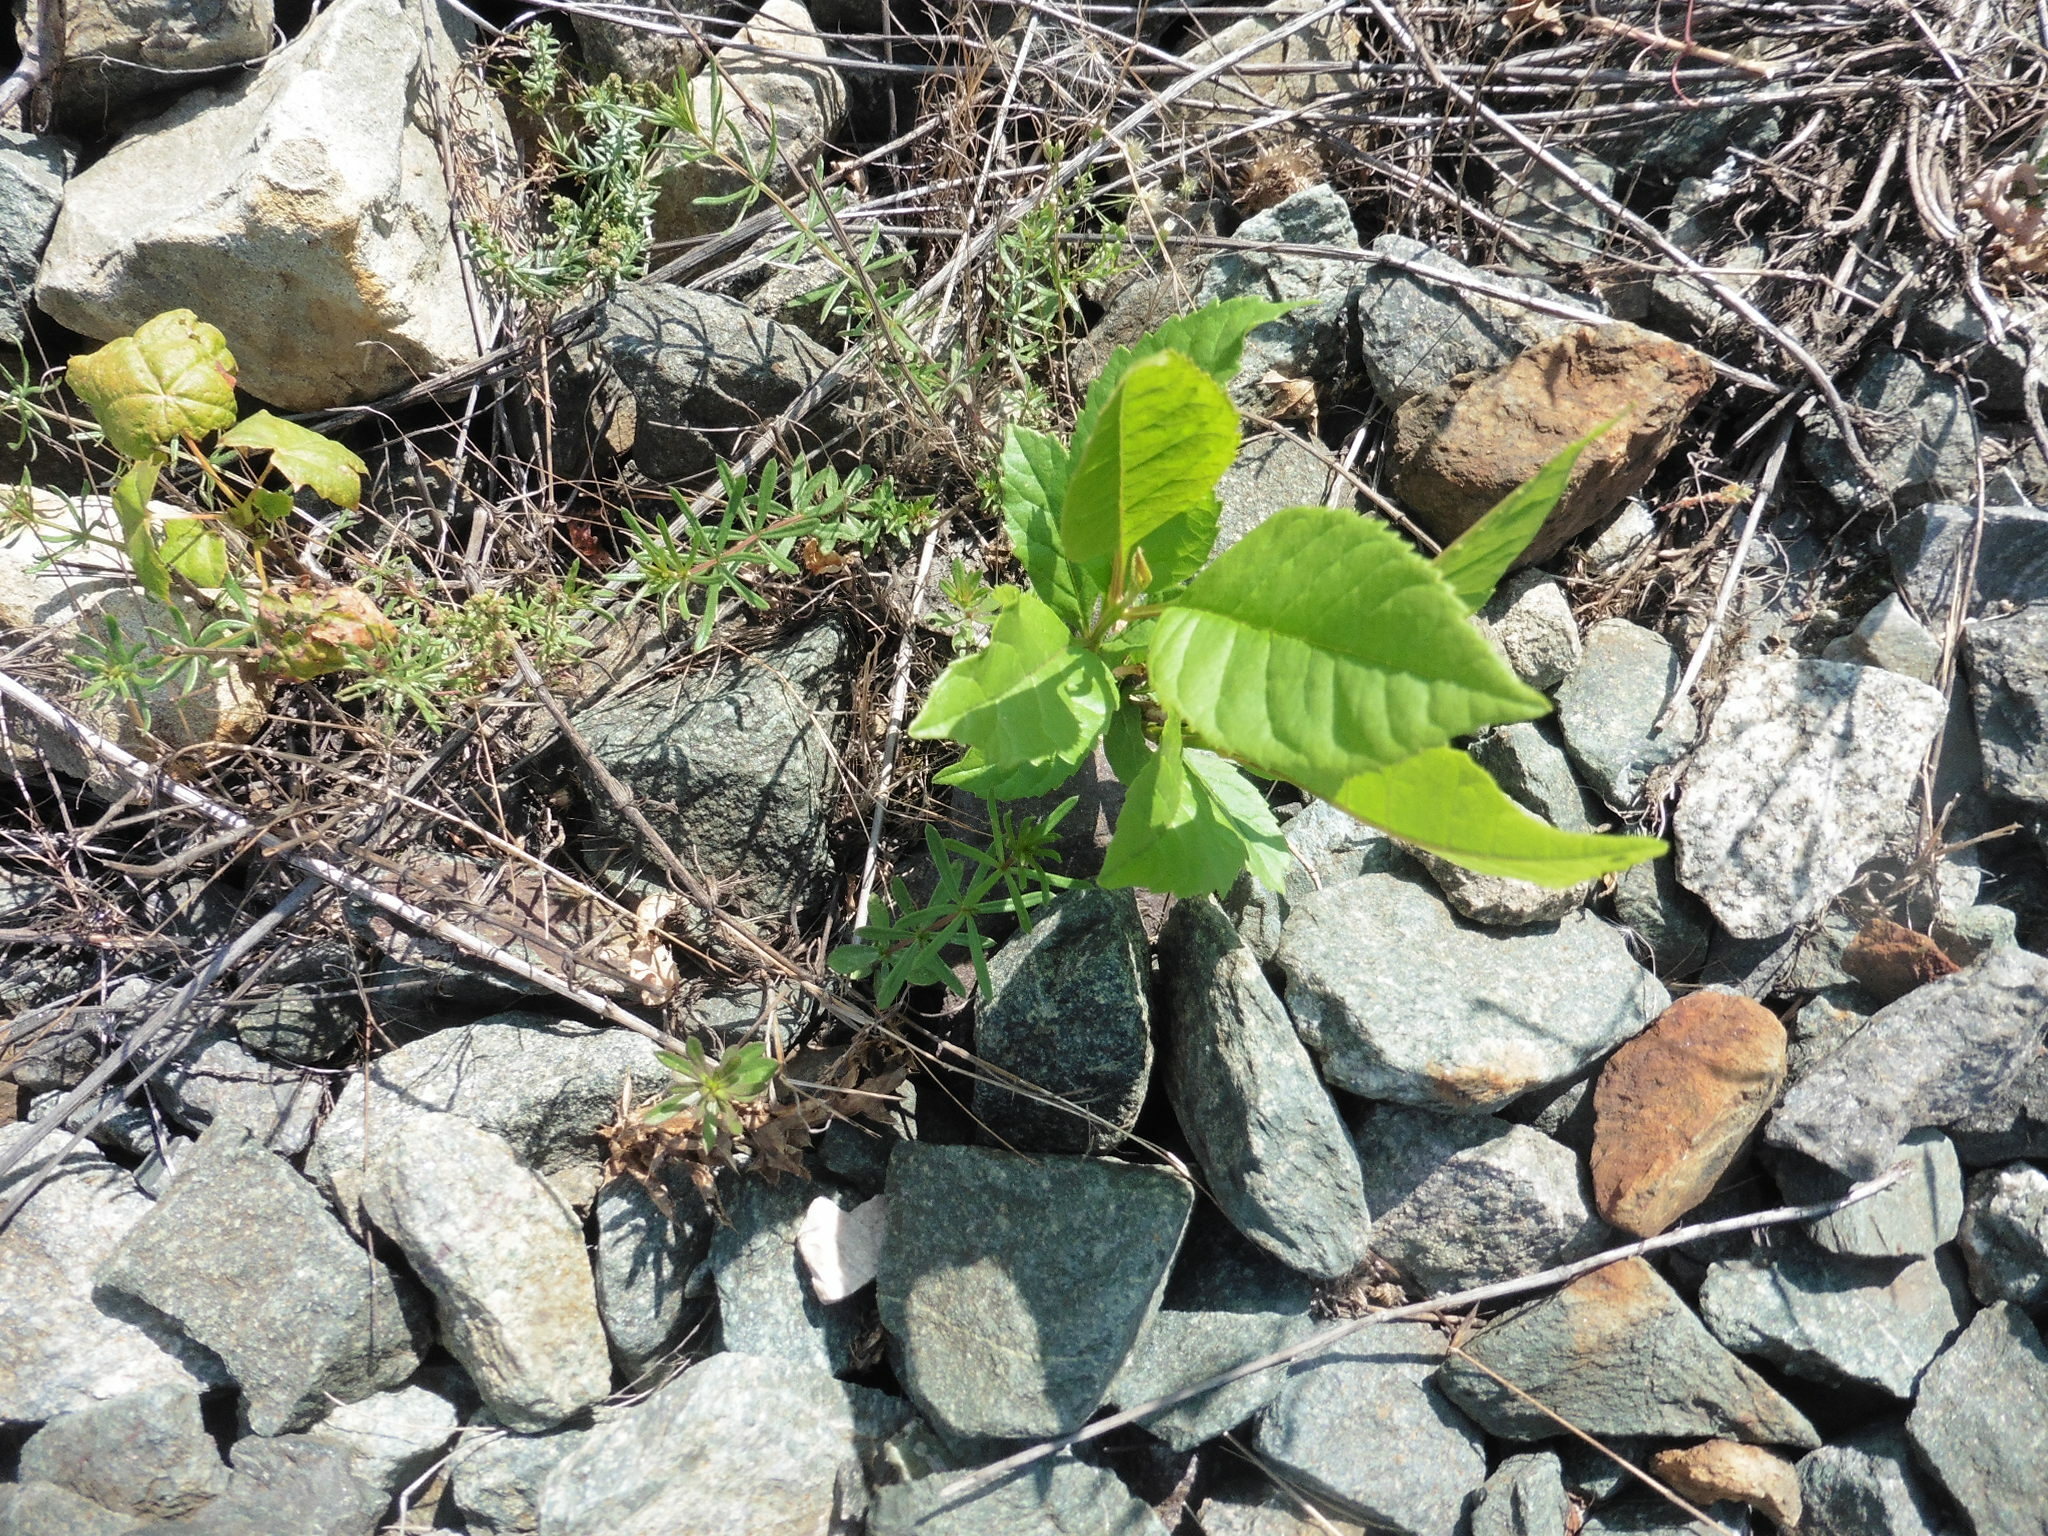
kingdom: Plantae
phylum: Tracheophyta
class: Magnoliopsida
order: Lamiales
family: Oleaceae
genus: Fraxinus
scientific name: Fraxinus pennsylvanica
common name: Green ash
